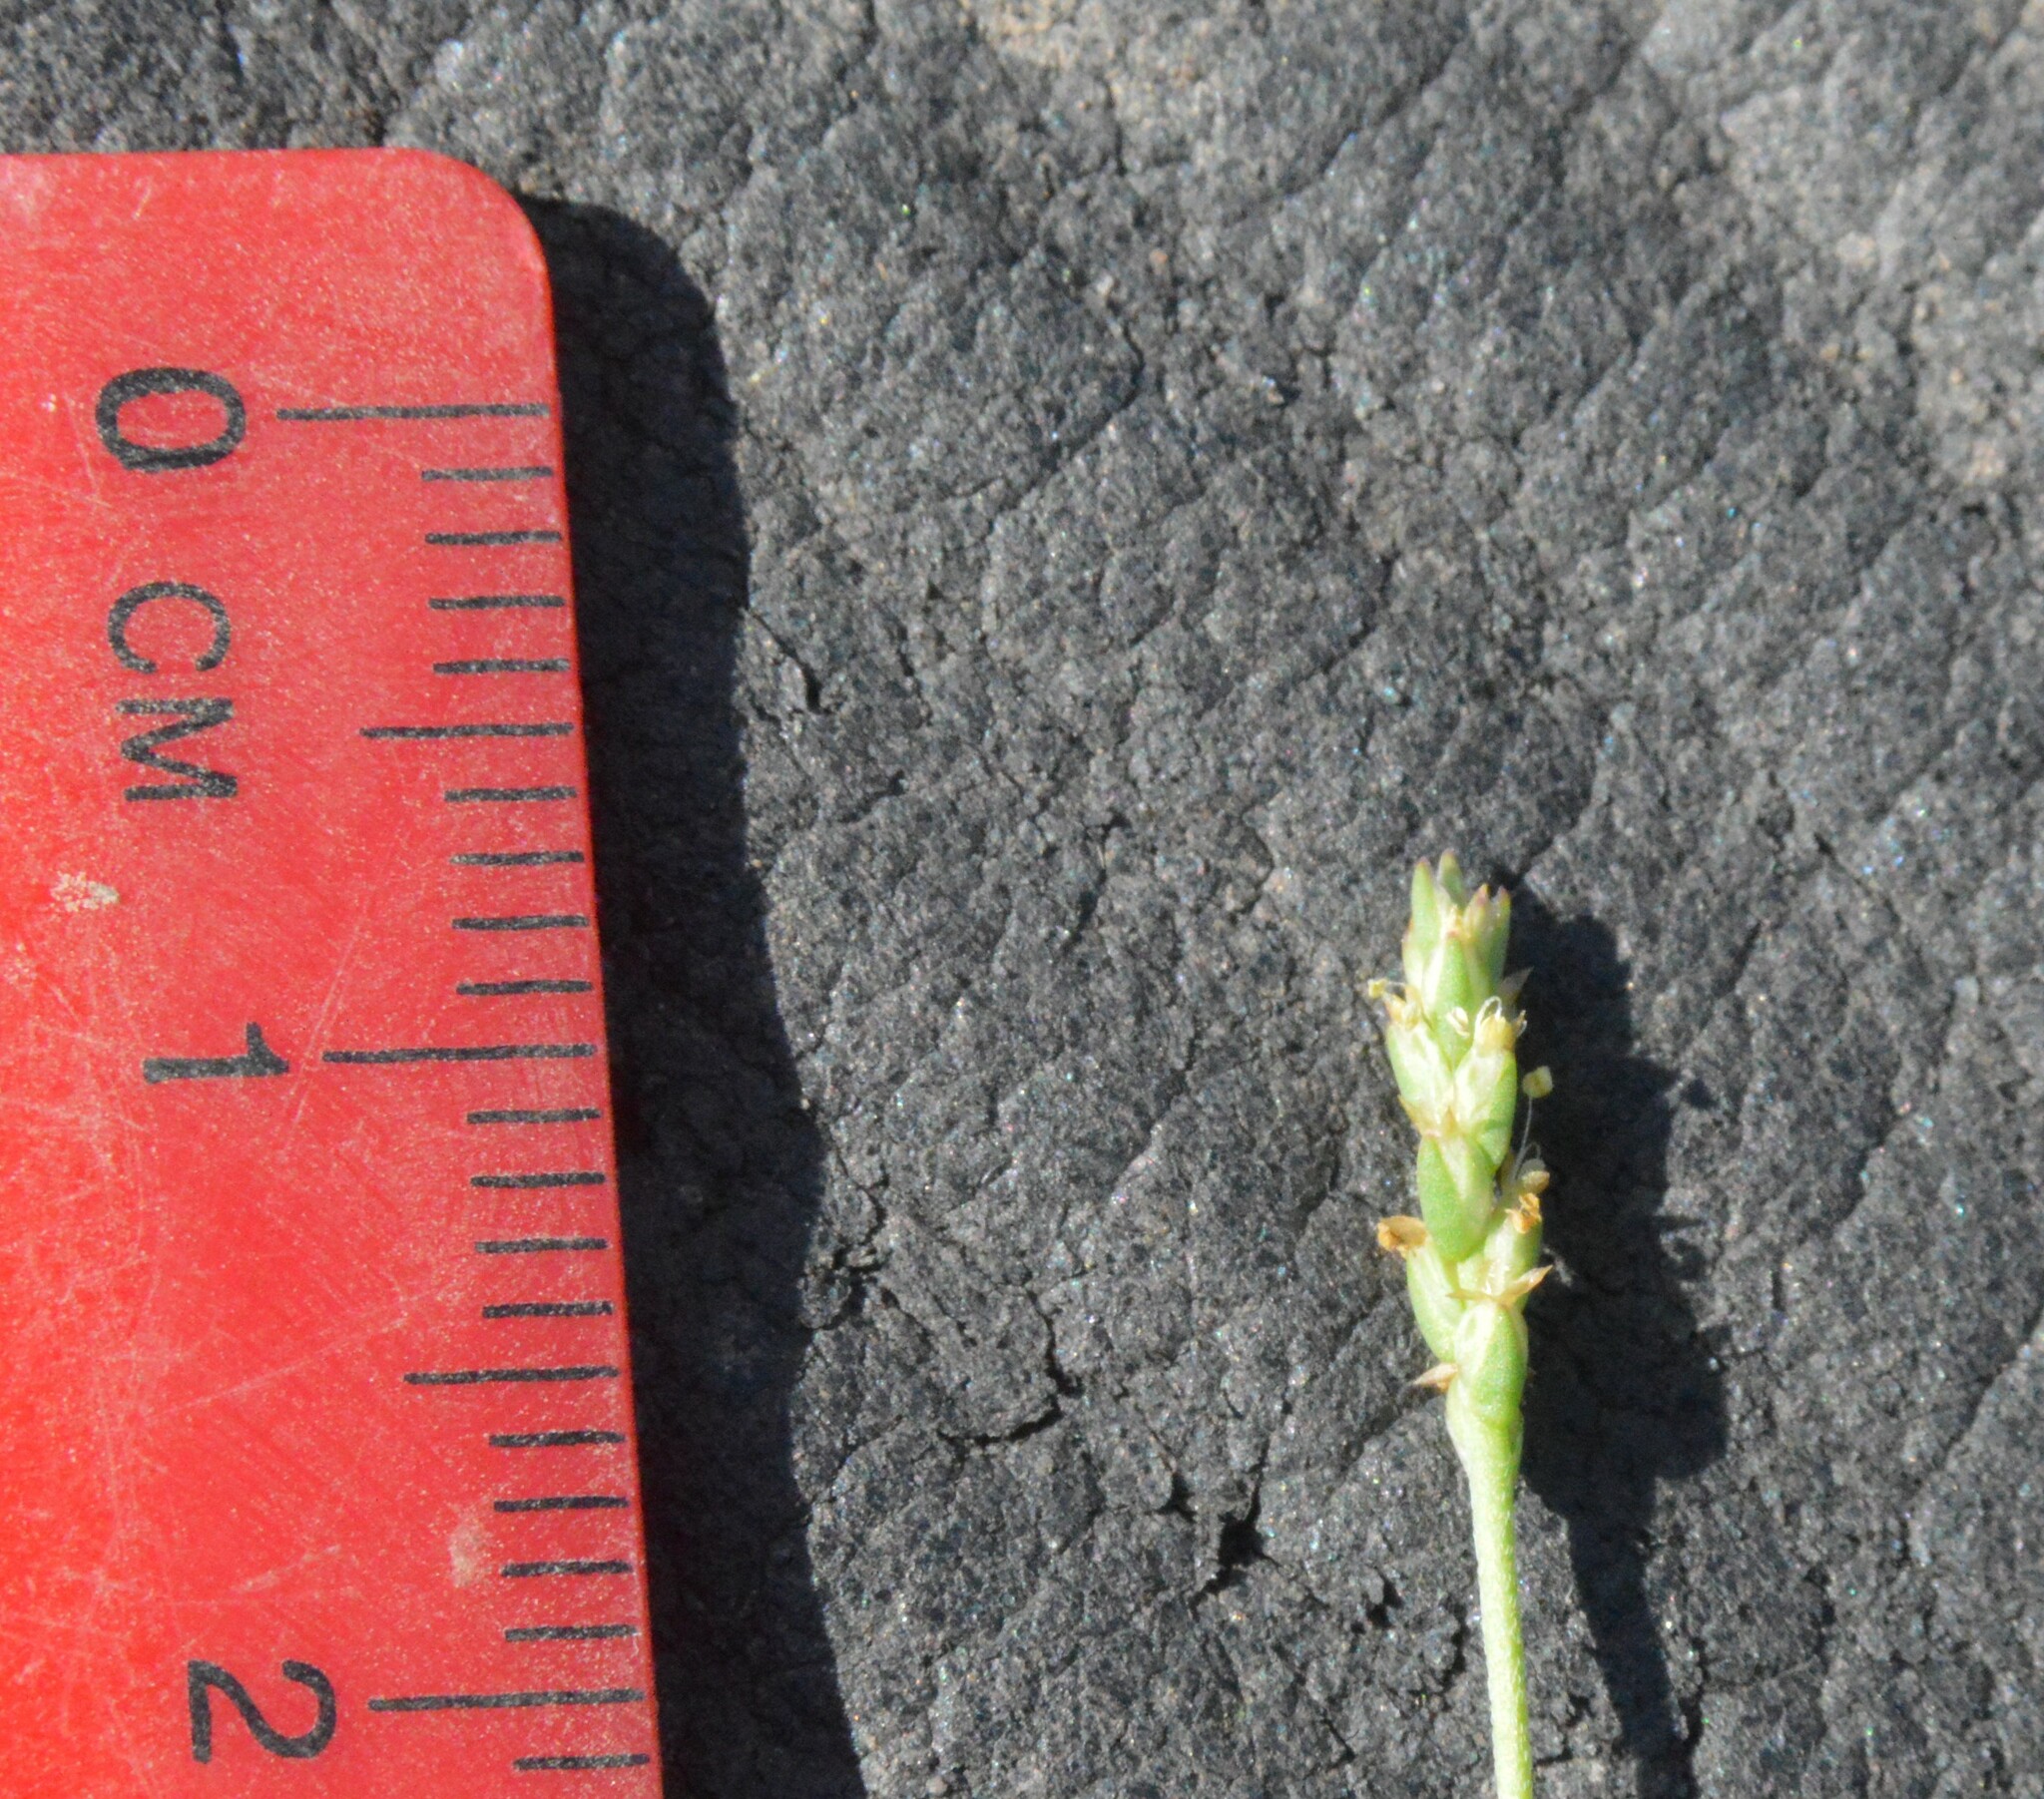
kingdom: Plantae
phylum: Tracheophyta
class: Magnoliopsida
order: Lamiales
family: Plantaginaceae
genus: Plantago
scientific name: Plantago heterophylla
